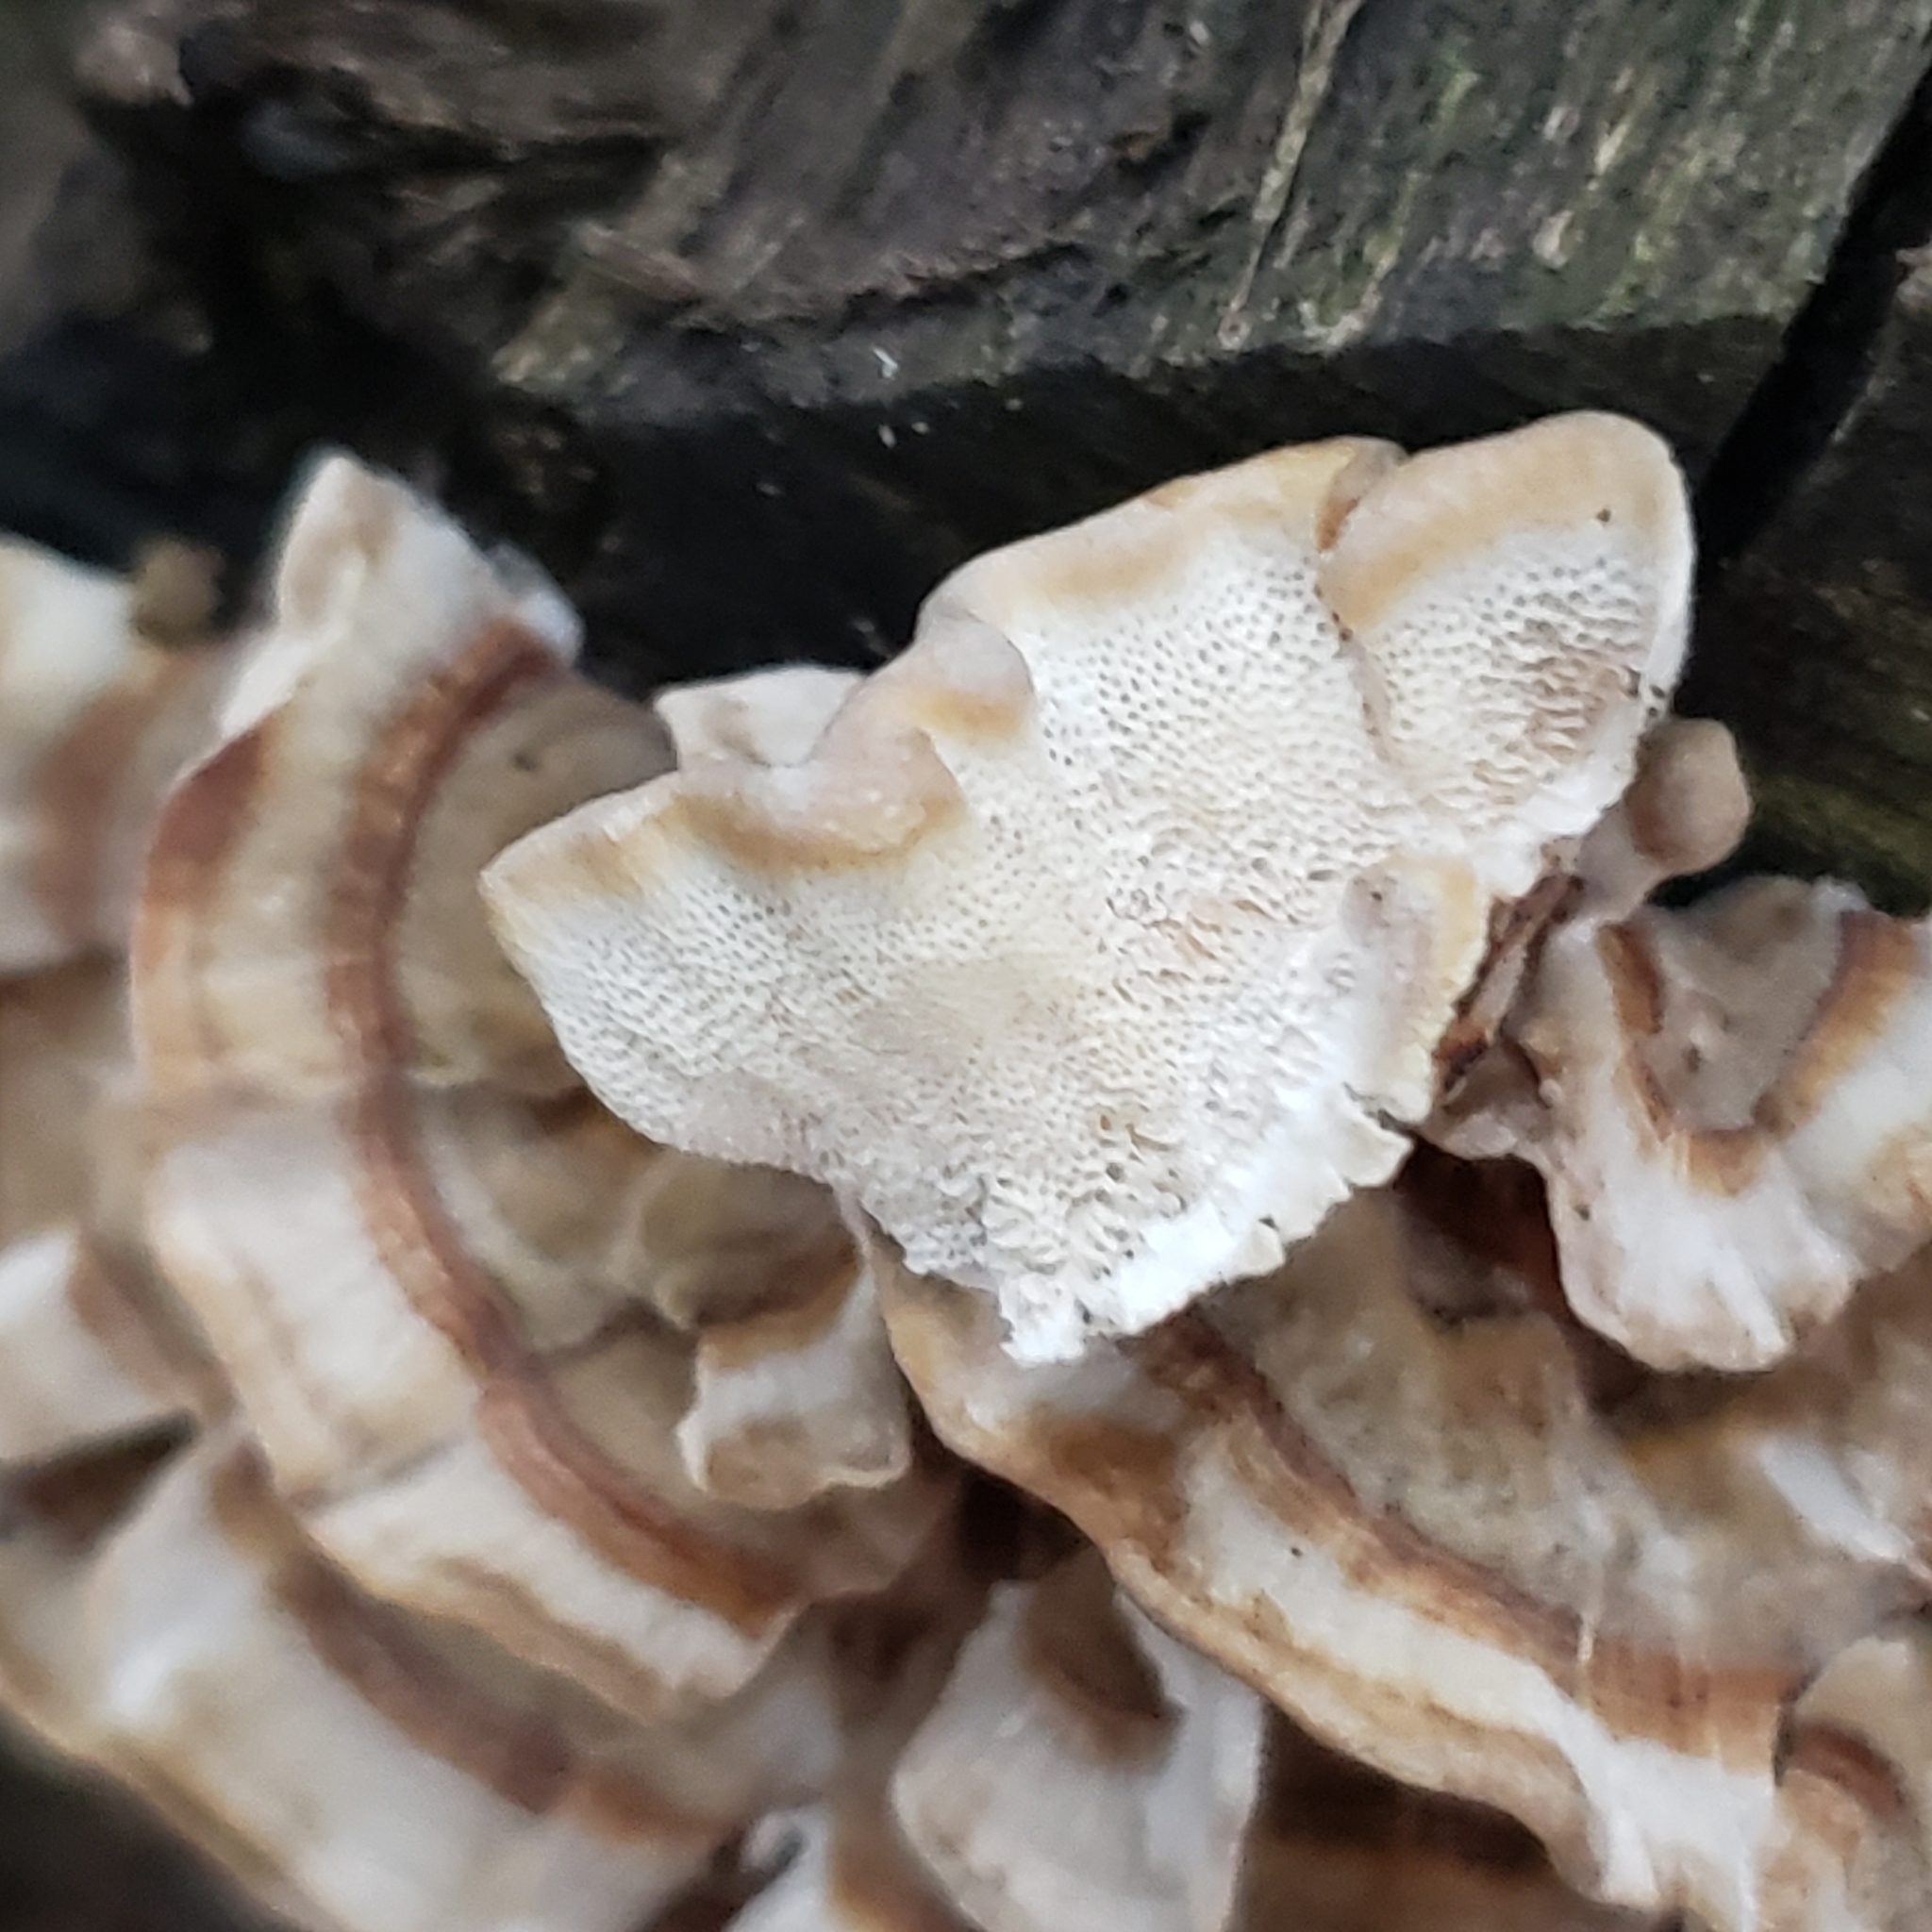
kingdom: Fungi
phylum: Basidiomycota
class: Agaricomycetes
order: Polyporales
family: Polyporaceae
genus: Trametes
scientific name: Trametes versicolor
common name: Turkeytail
